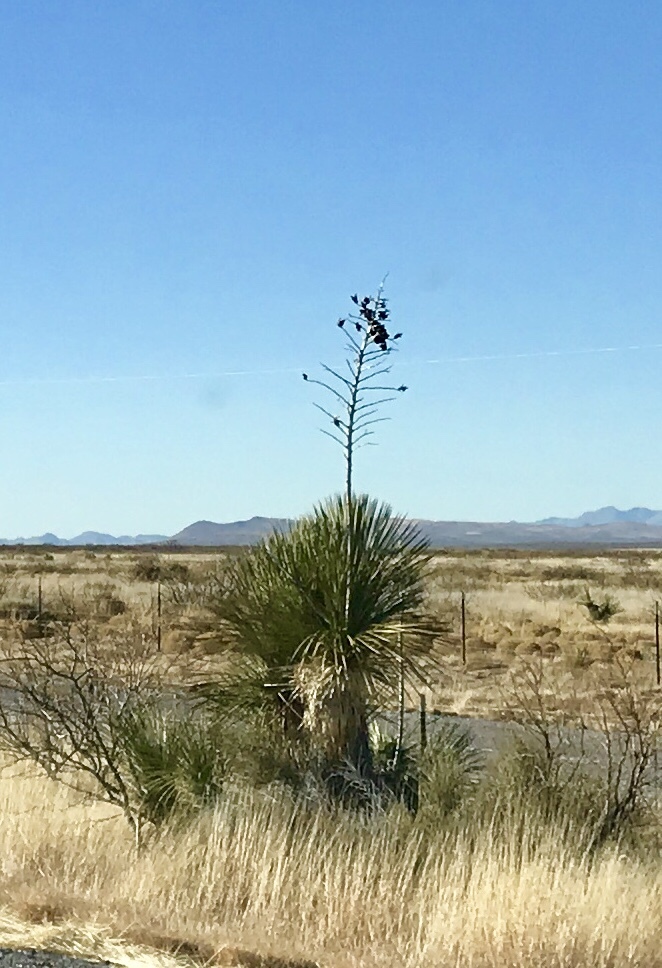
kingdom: Plantae
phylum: Tracheophyta
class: Liliopsida
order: Asparagales
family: Asparagaceae
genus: Yucca
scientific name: Yucca elata
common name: Palmella
